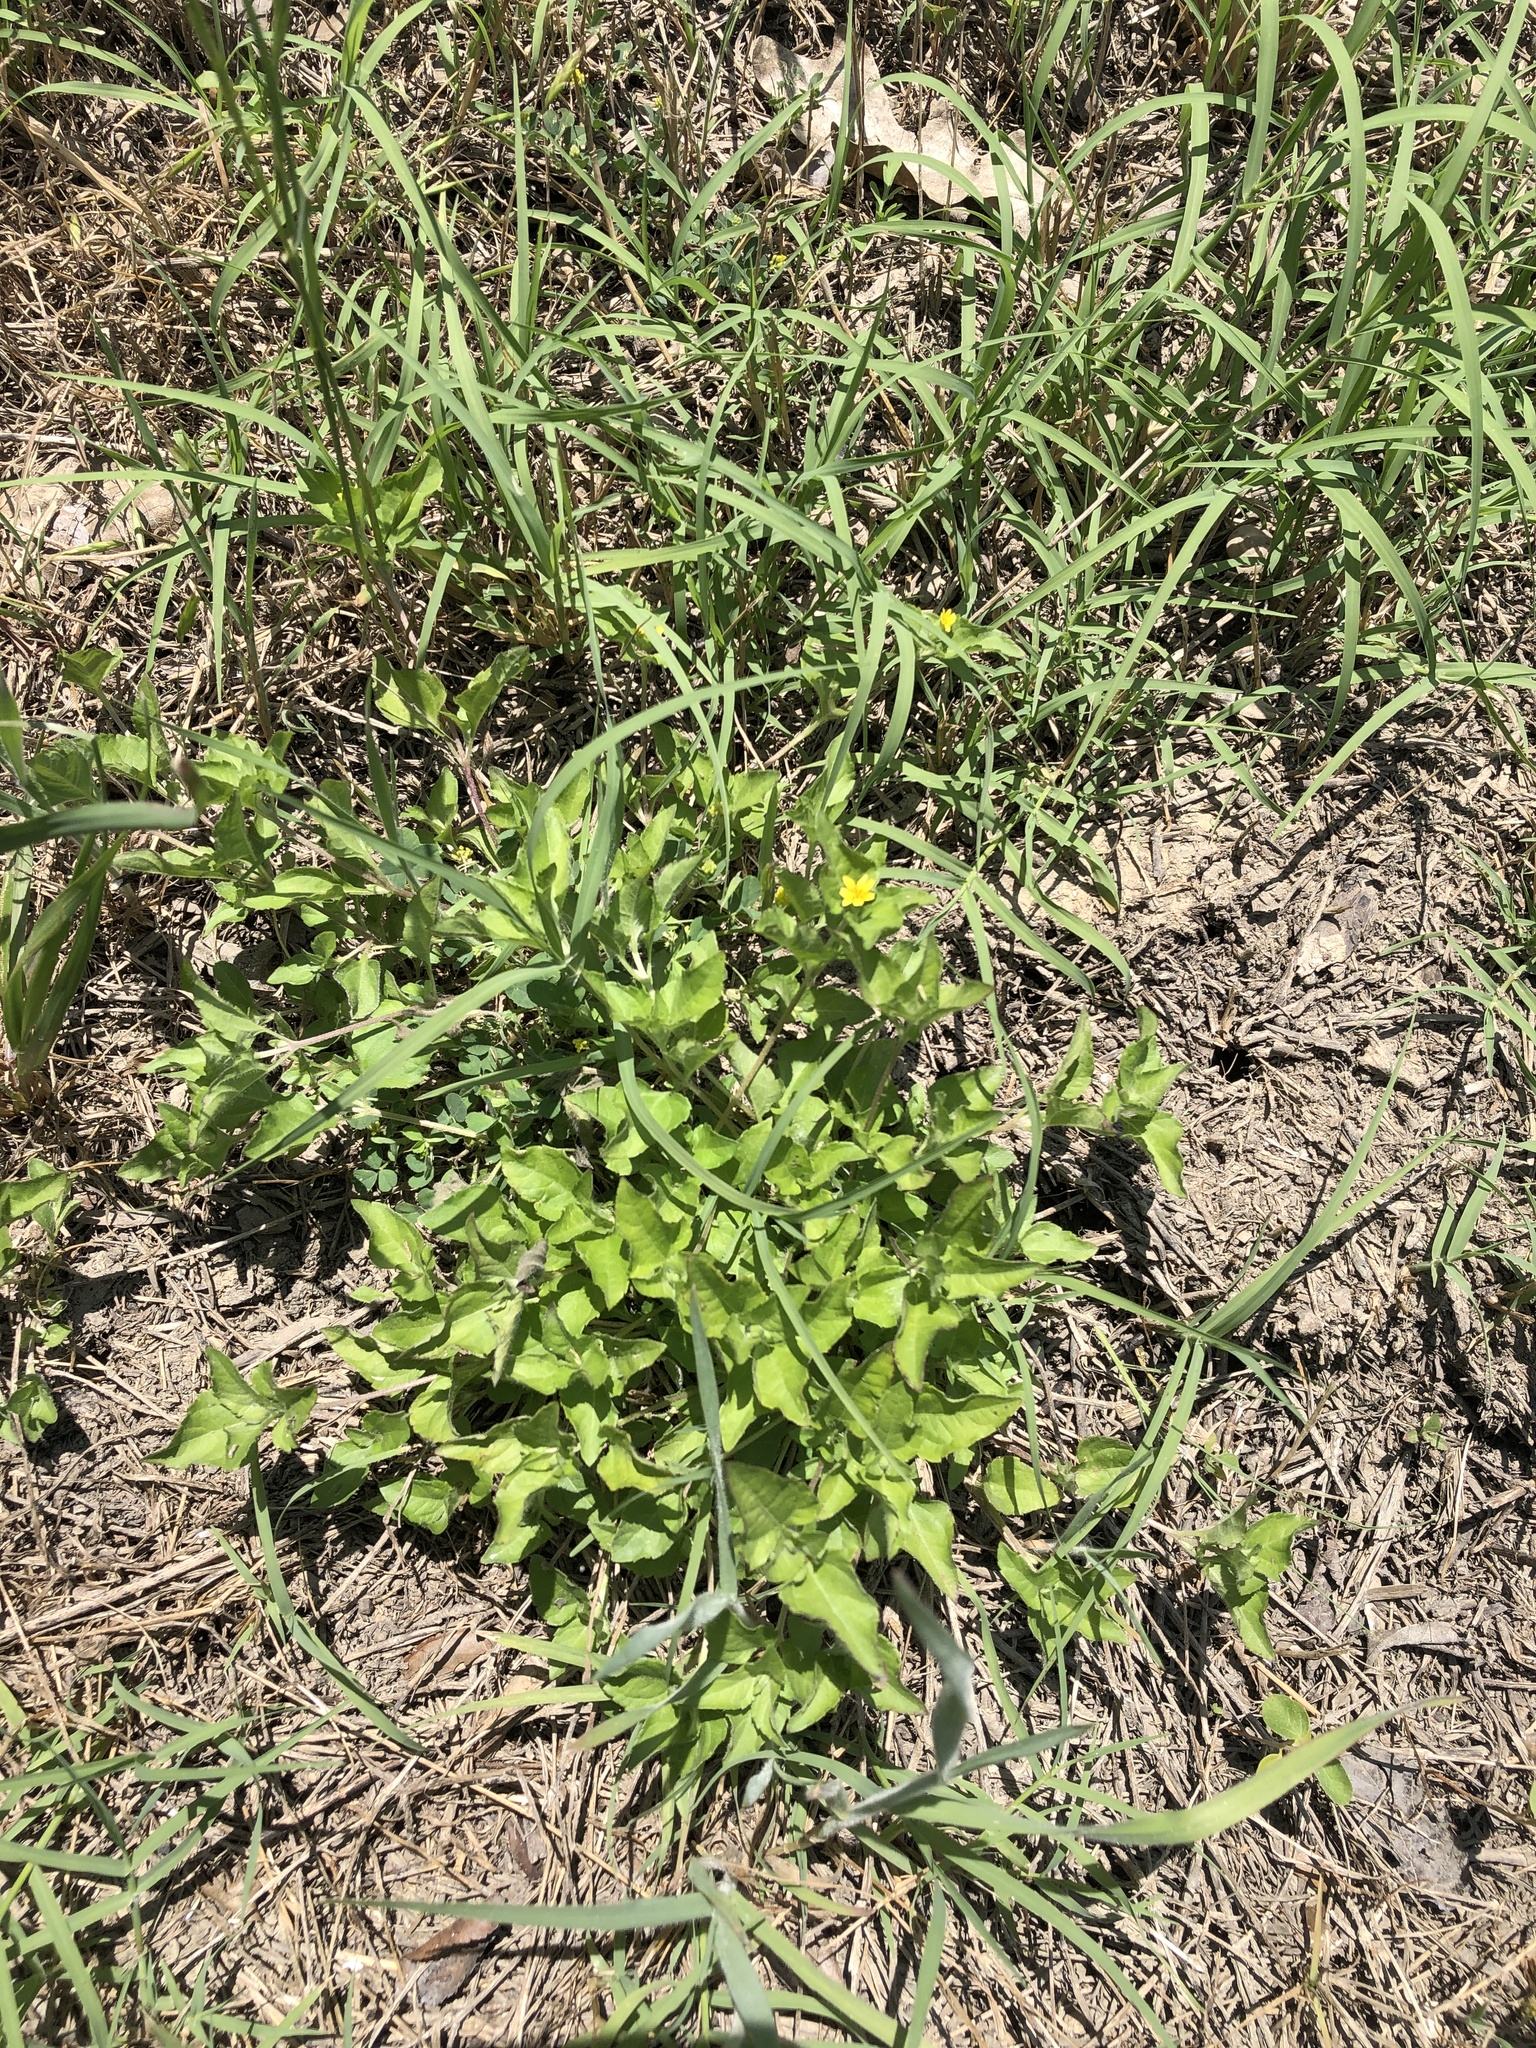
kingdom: Plantae
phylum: Tracheophyta
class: Magnoliopsida
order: Asterales
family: Asteraceae
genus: Calyptocarpus
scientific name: Calyptocarpus vialis
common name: Straggler daisy
